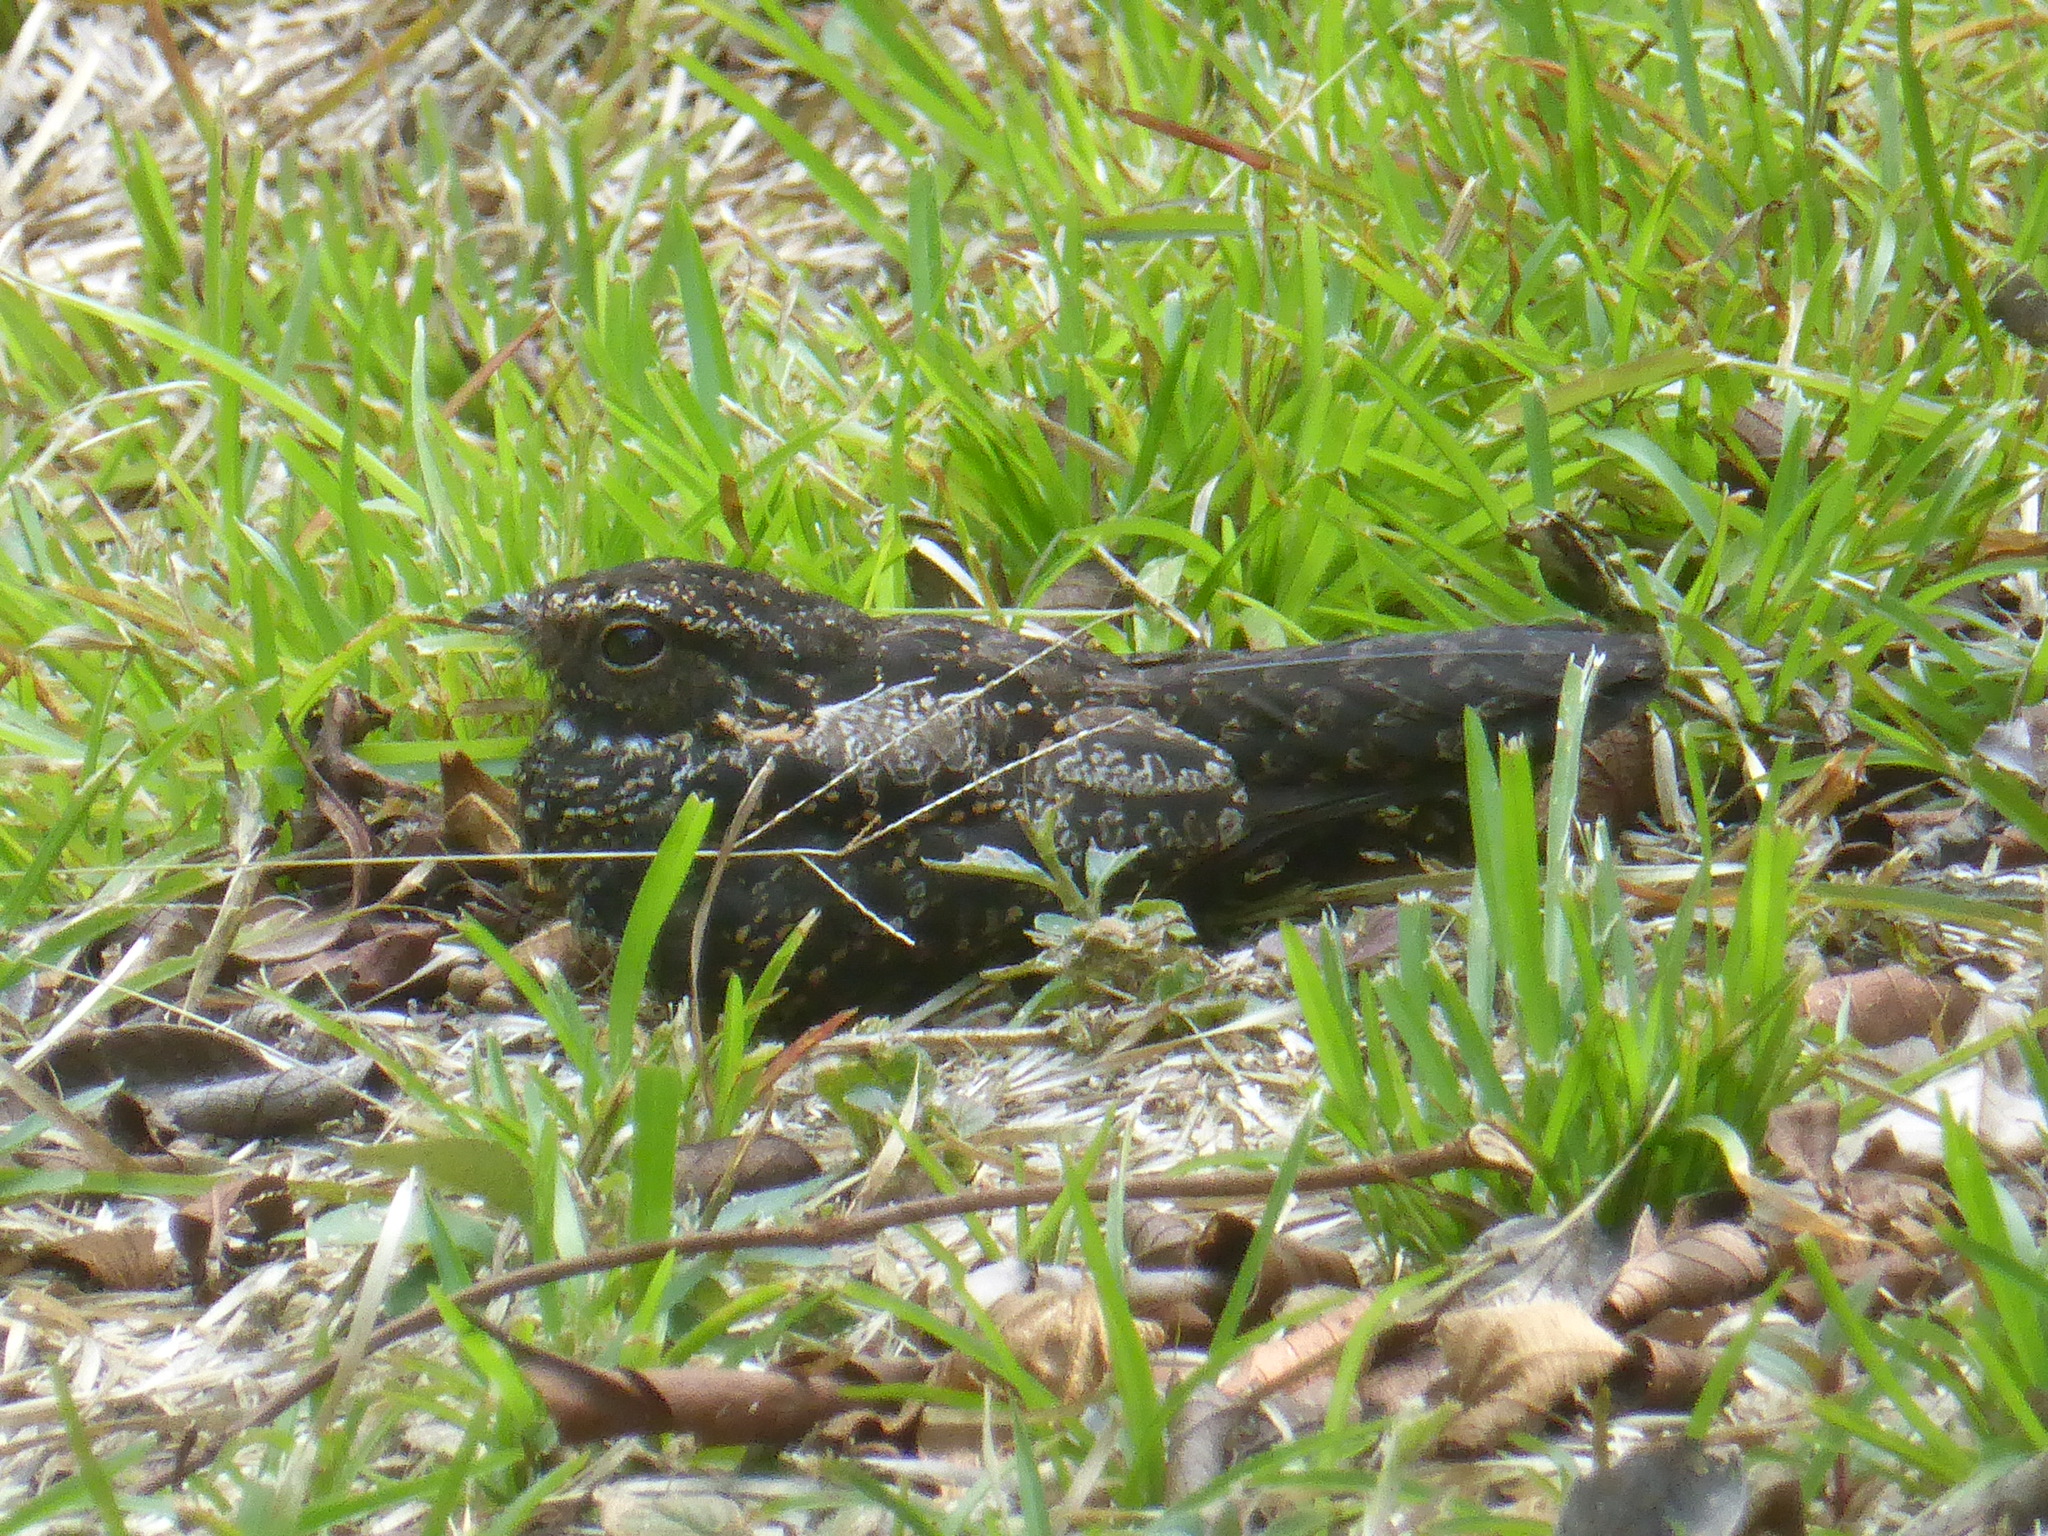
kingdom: Animalia
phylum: Chordata
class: Aves
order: Caprimulgiformes
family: Caprimulgidae
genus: Nyctipolus
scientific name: Nyctipolus nigrescens
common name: Blackish nightjar
